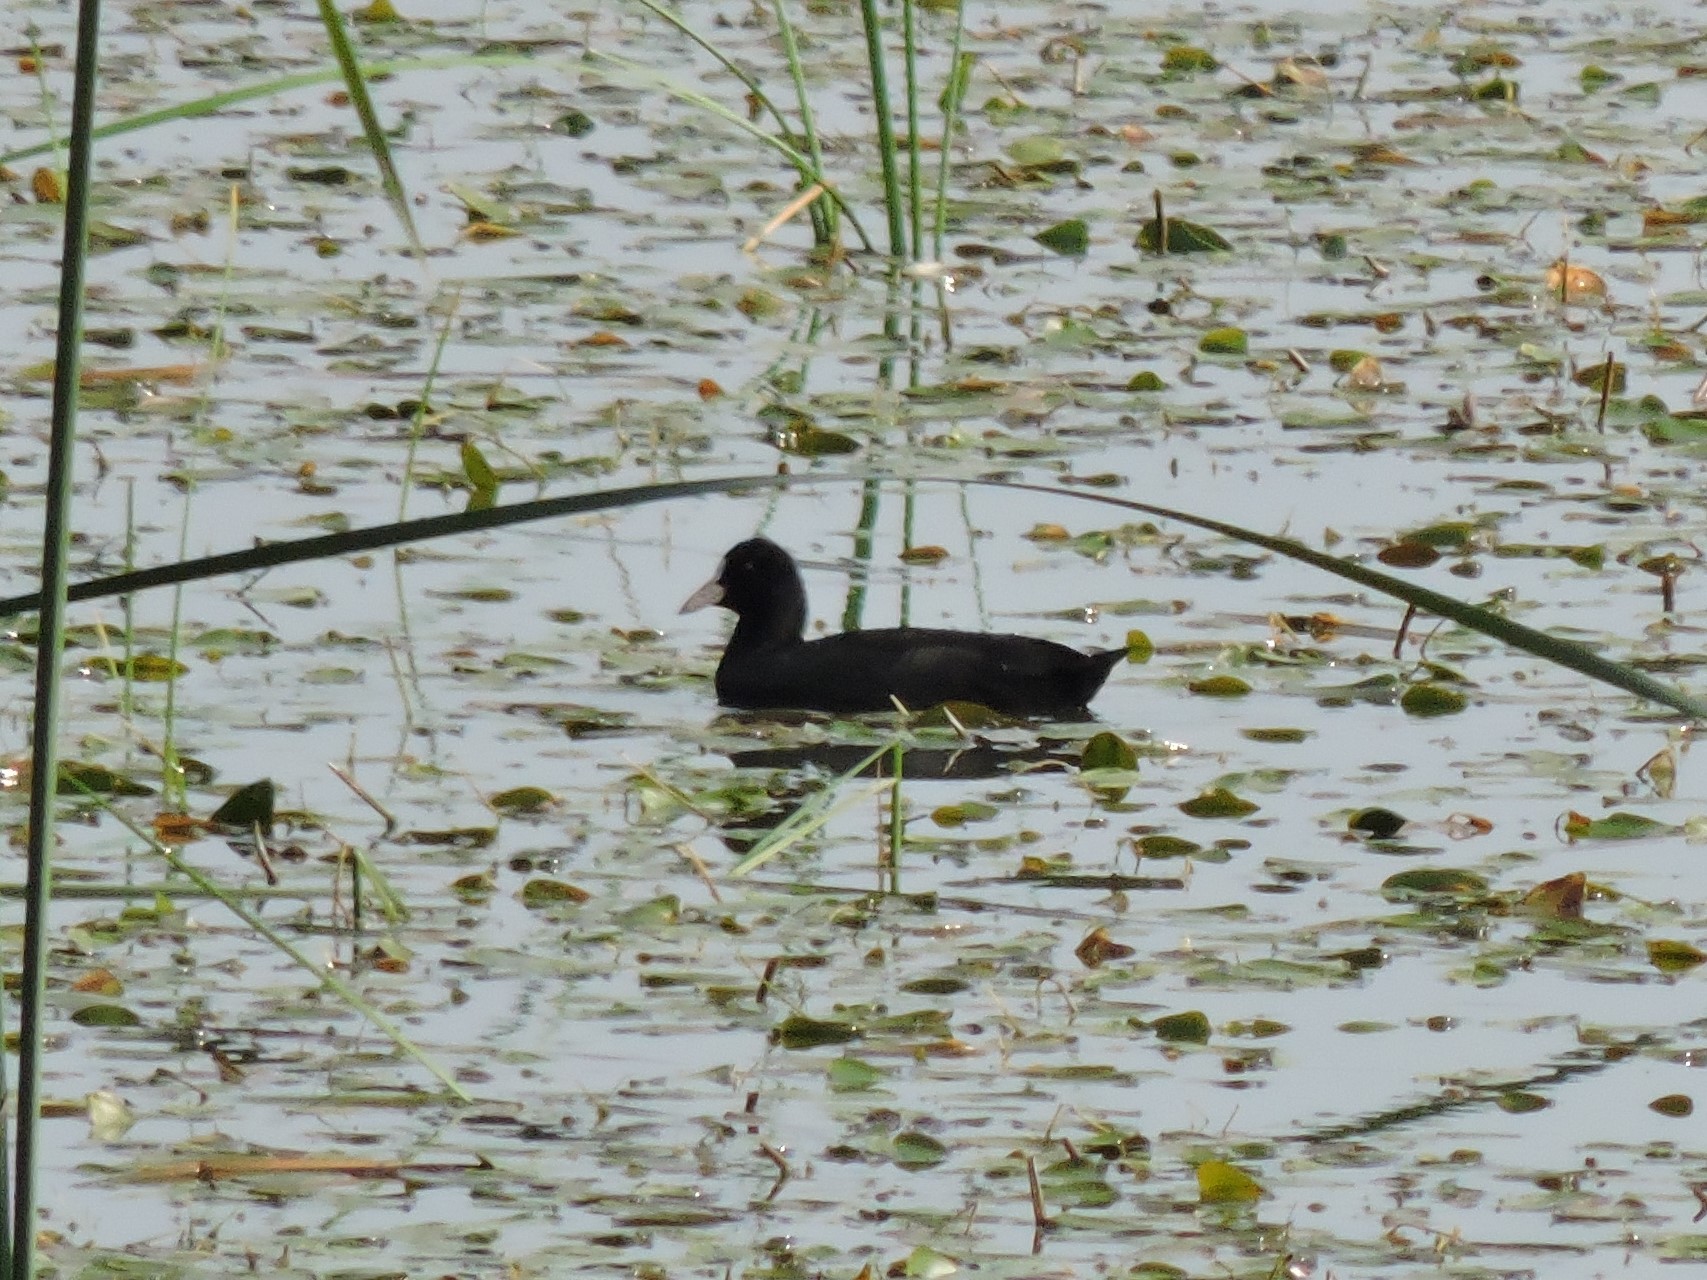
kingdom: Animalia
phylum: Chordata
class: Aves
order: Gruiformes
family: Rallidae
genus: Fulica
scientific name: Fulica atra
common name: Eurasian coot
